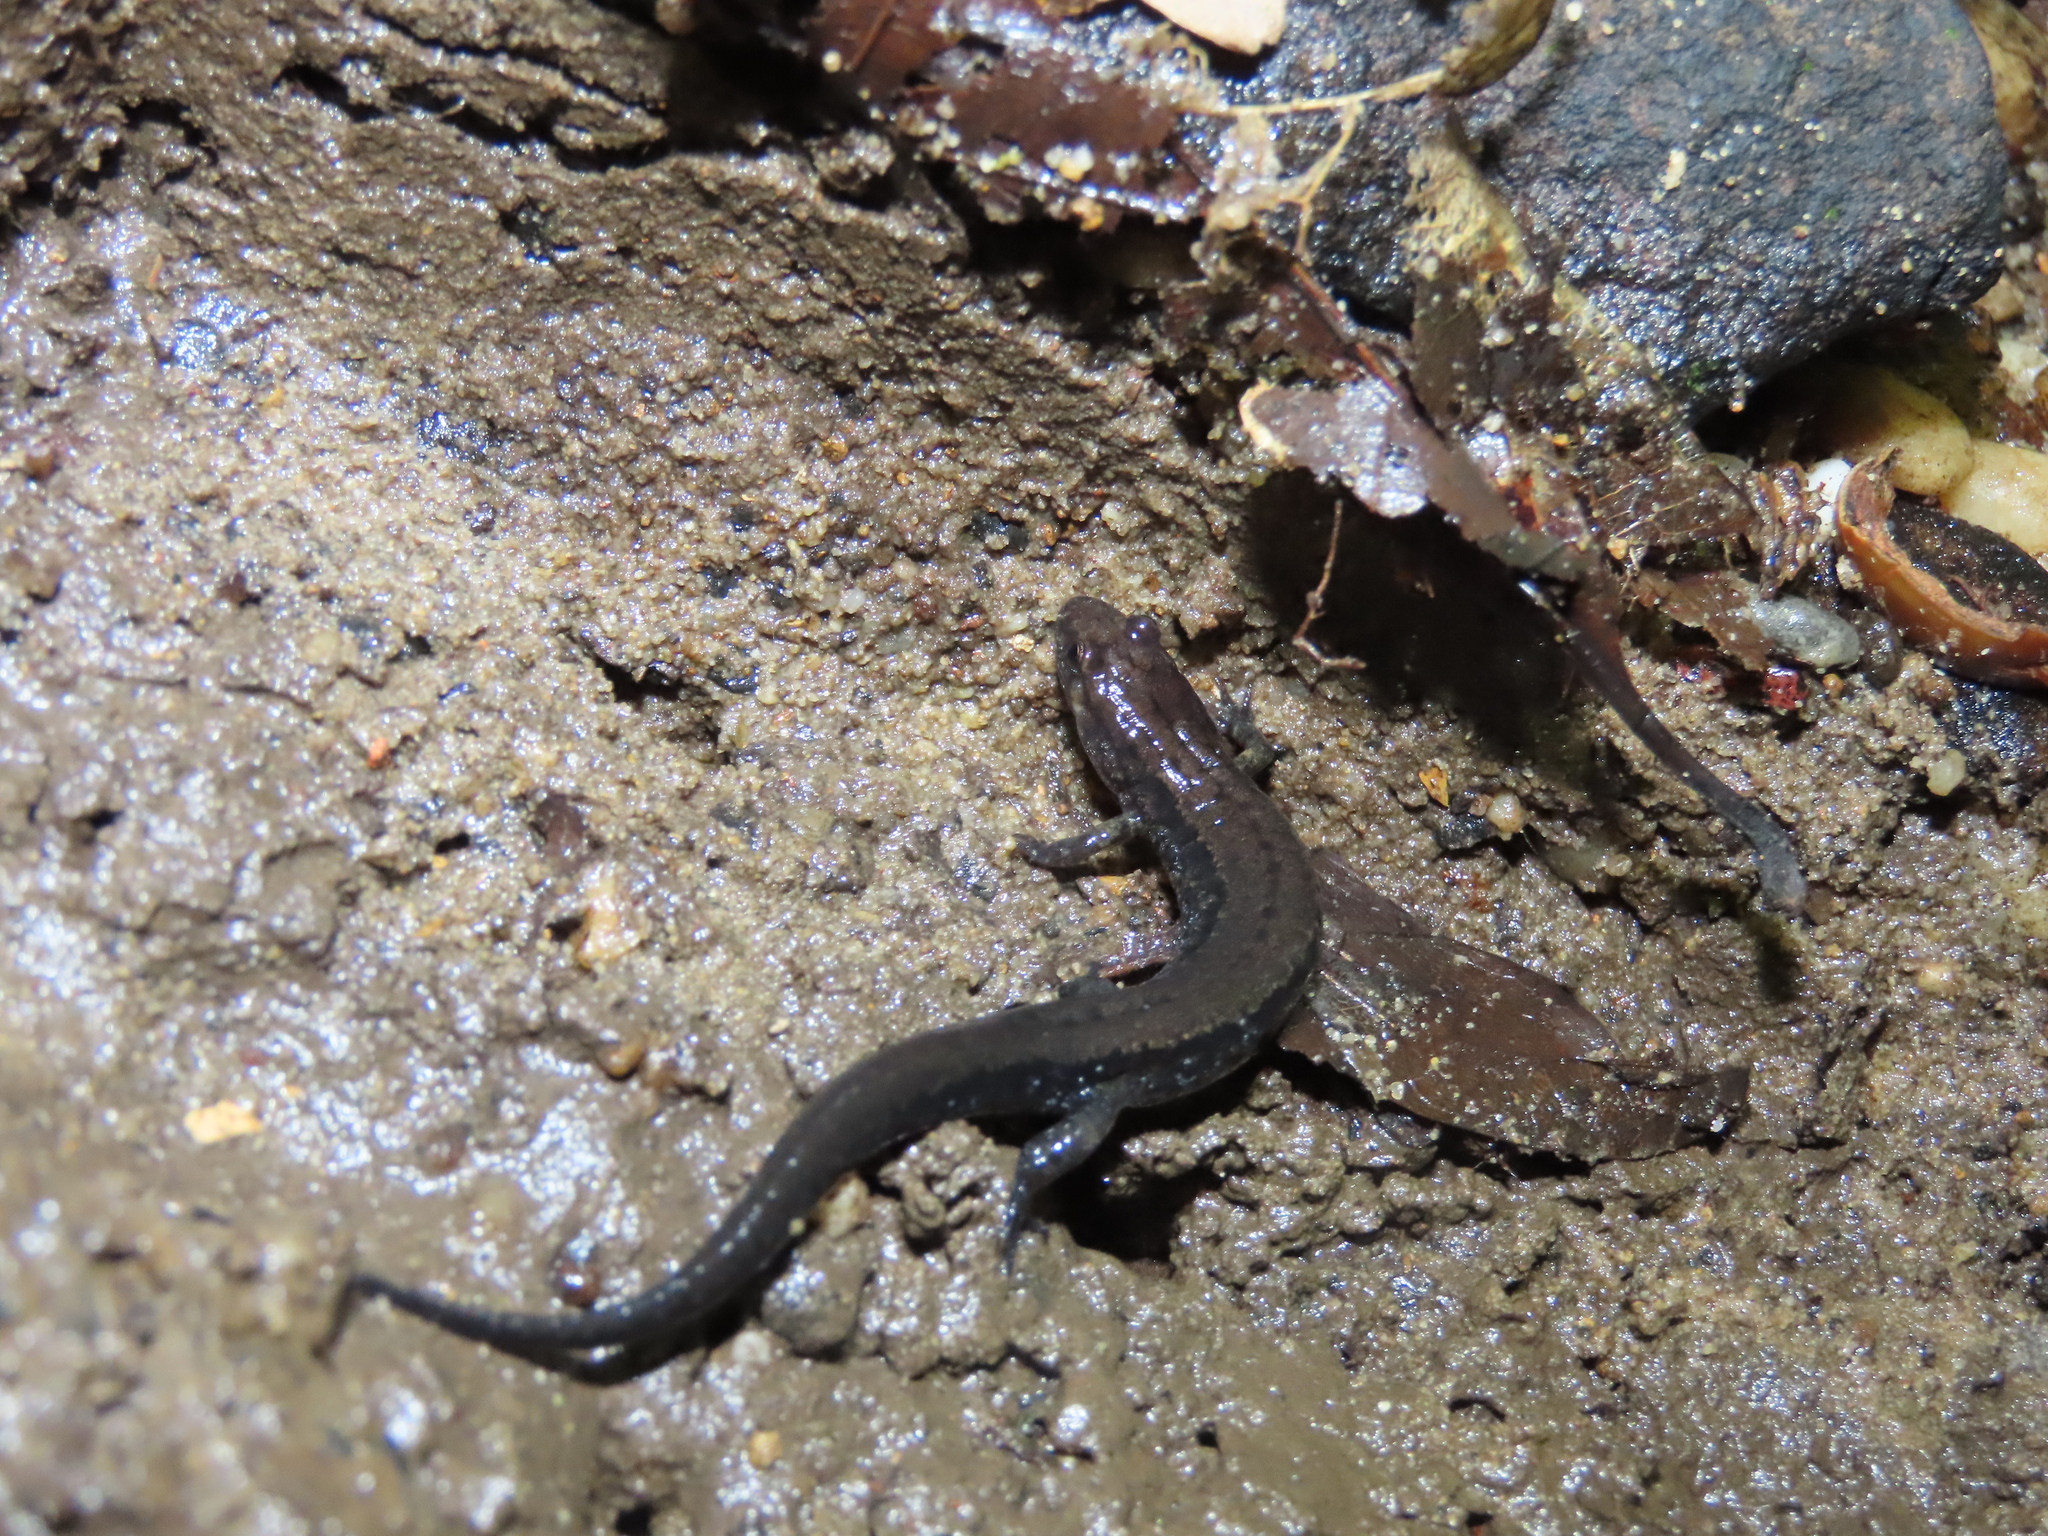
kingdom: Animalia
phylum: Chordata
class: Amphibia
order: Caudata
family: Plethodontidae
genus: Desmognathus
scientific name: Desmognathus ochrophaeus
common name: Allegheny mountain dusky salamander
